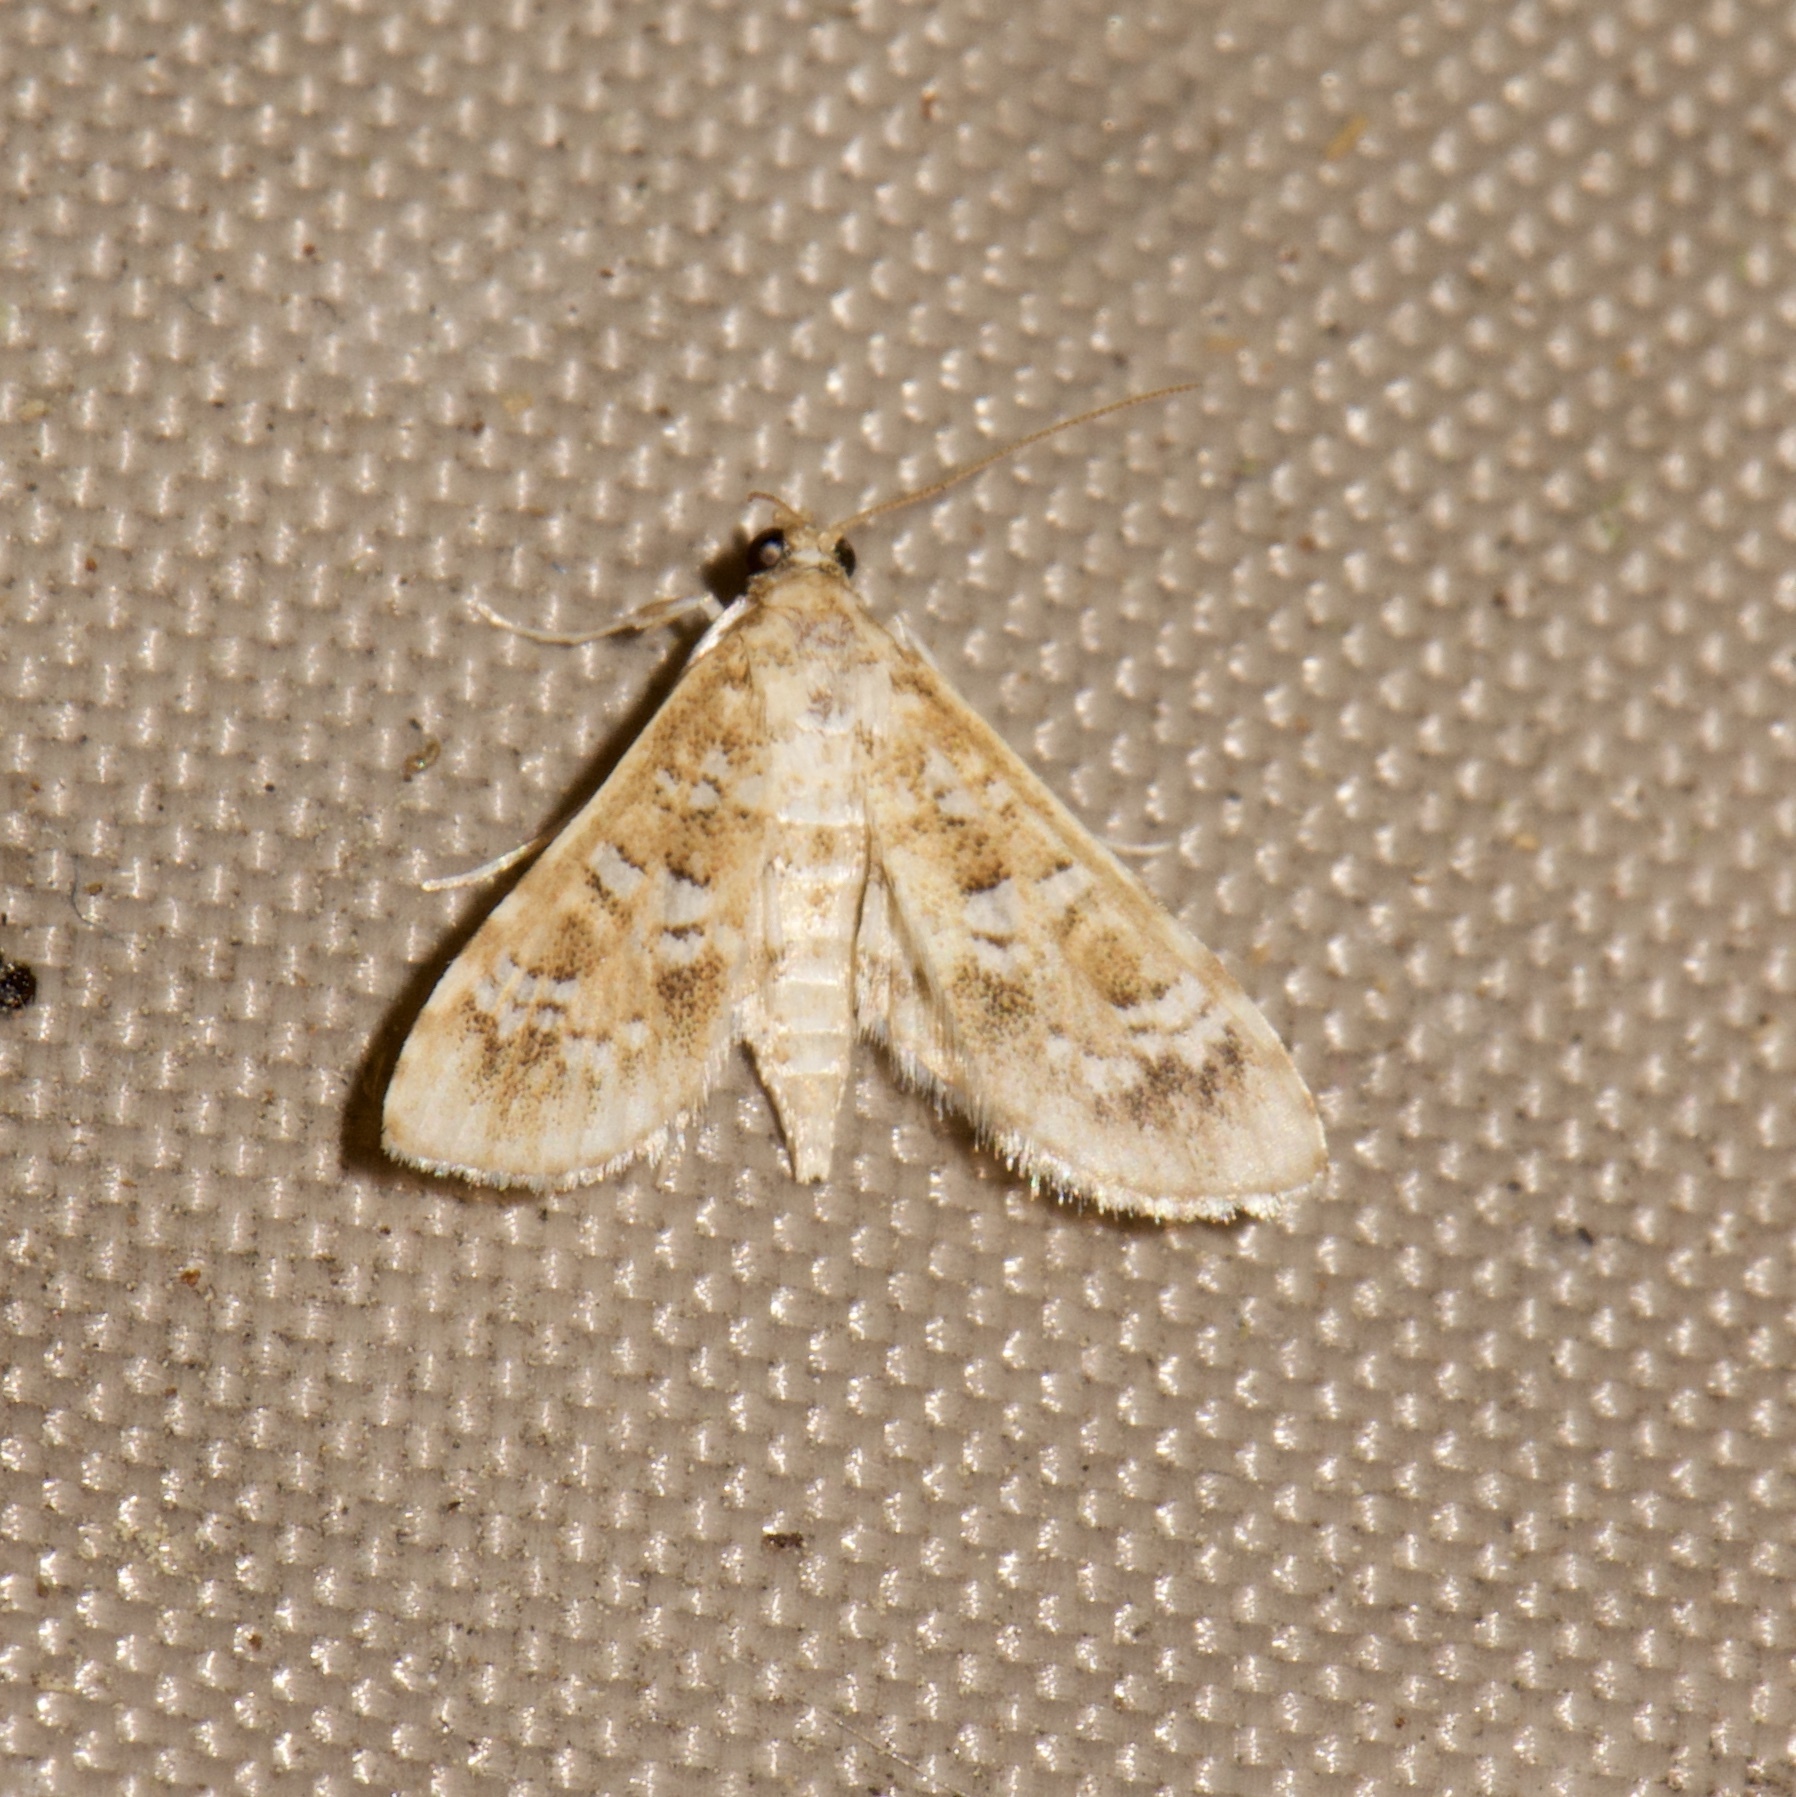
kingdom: Animalia
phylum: Arthropoda
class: Insecta
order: Lepidoptera
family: Crambidae
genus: Samea
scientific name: Samea multiplicalis
